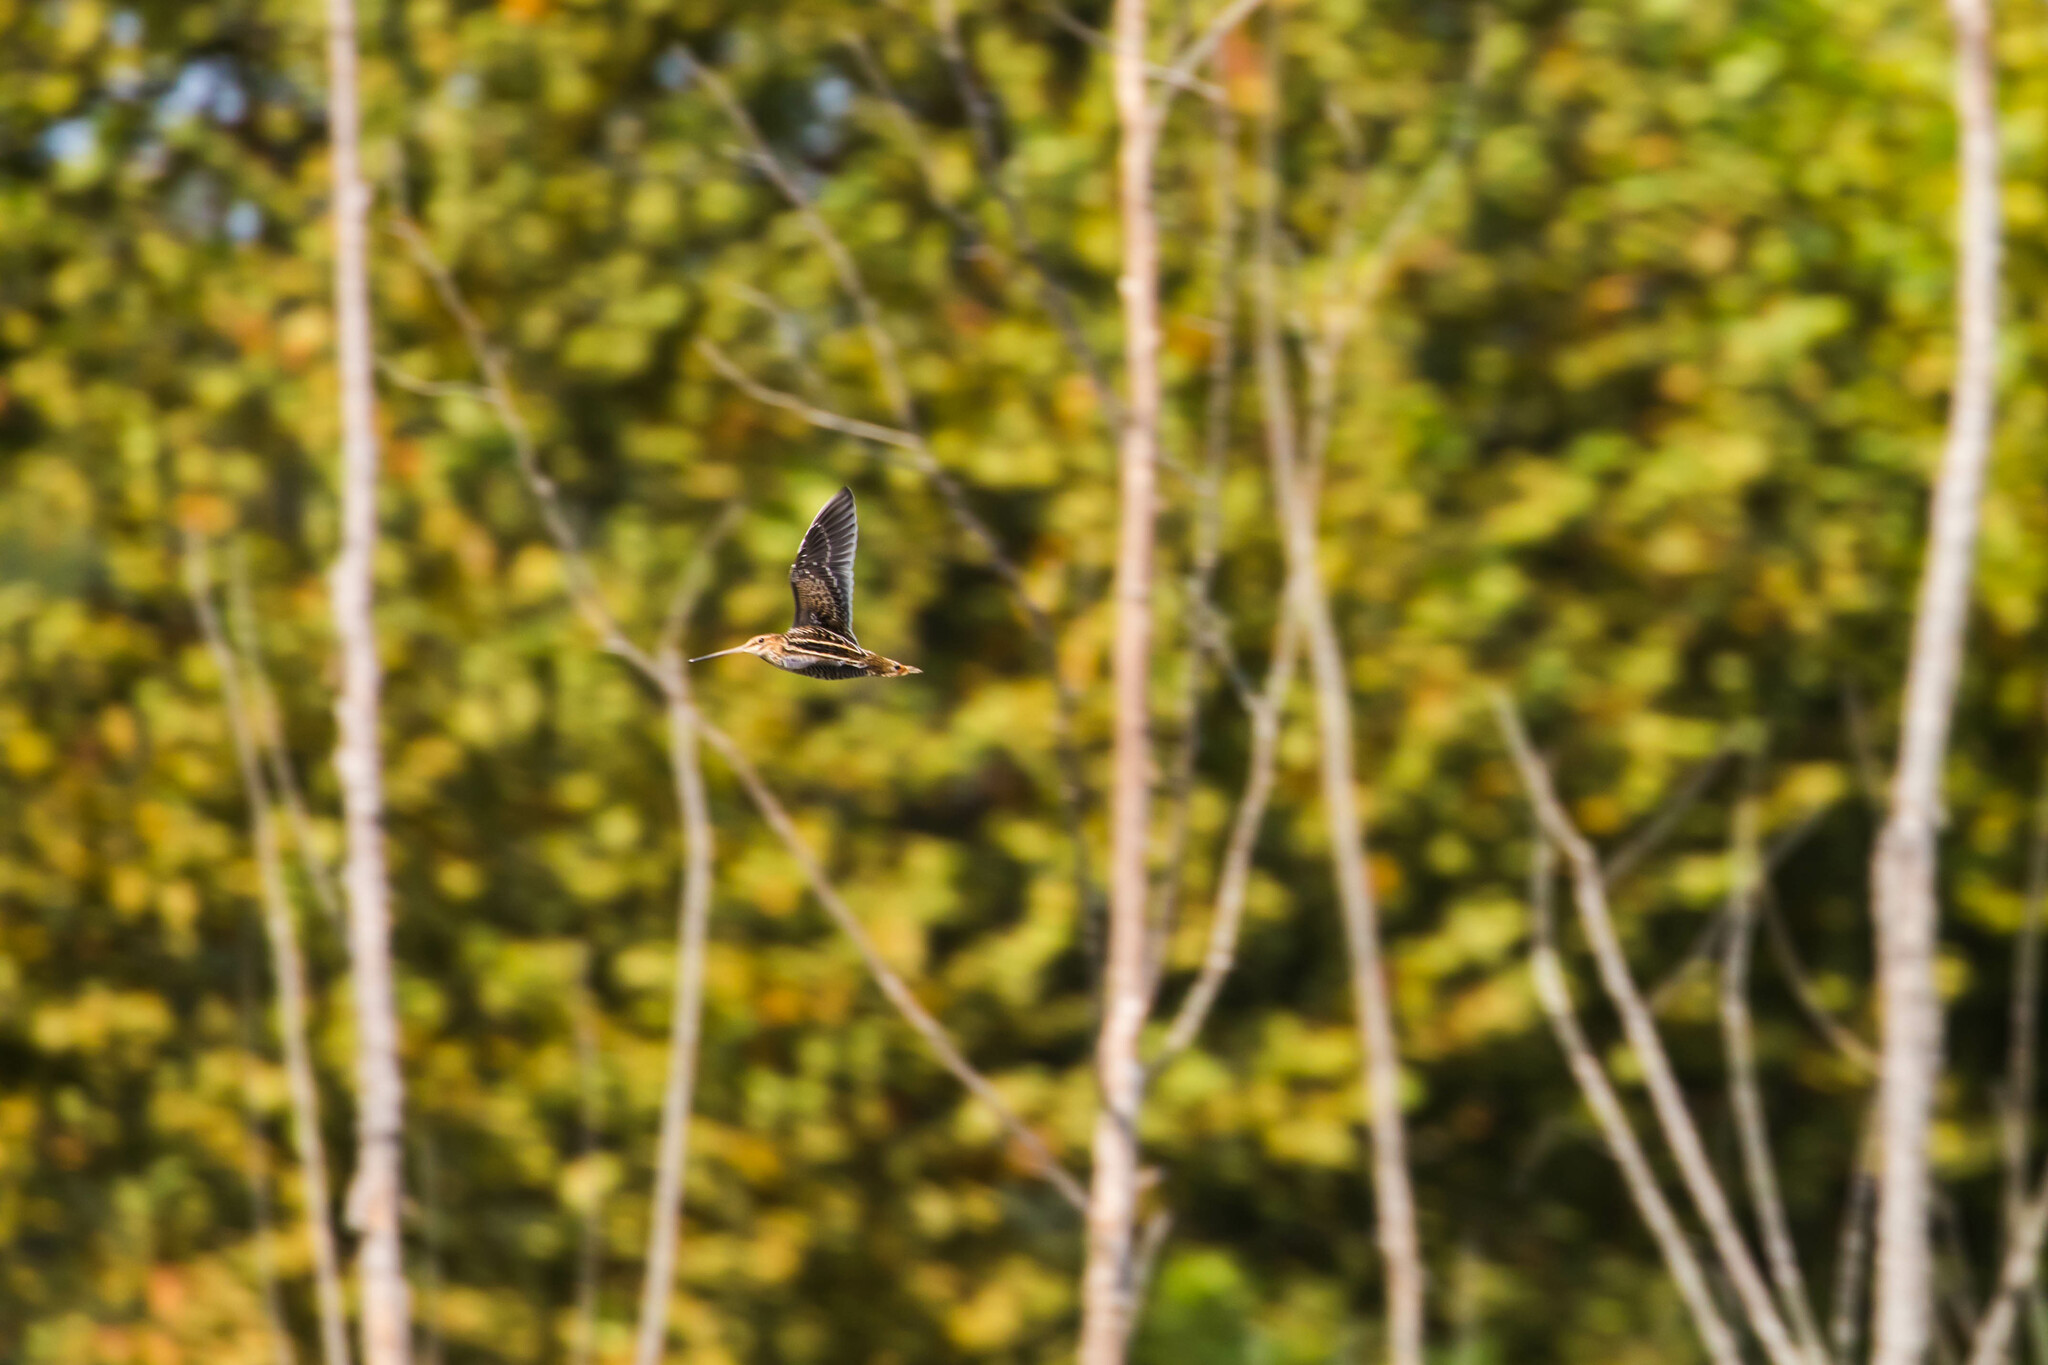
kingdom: Animalia
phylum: Chordata
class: Aves
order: Charadriiformes
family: Scolopacidae
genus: Gallinago
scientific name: Gallinago delicata
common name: Wilson's snipe
